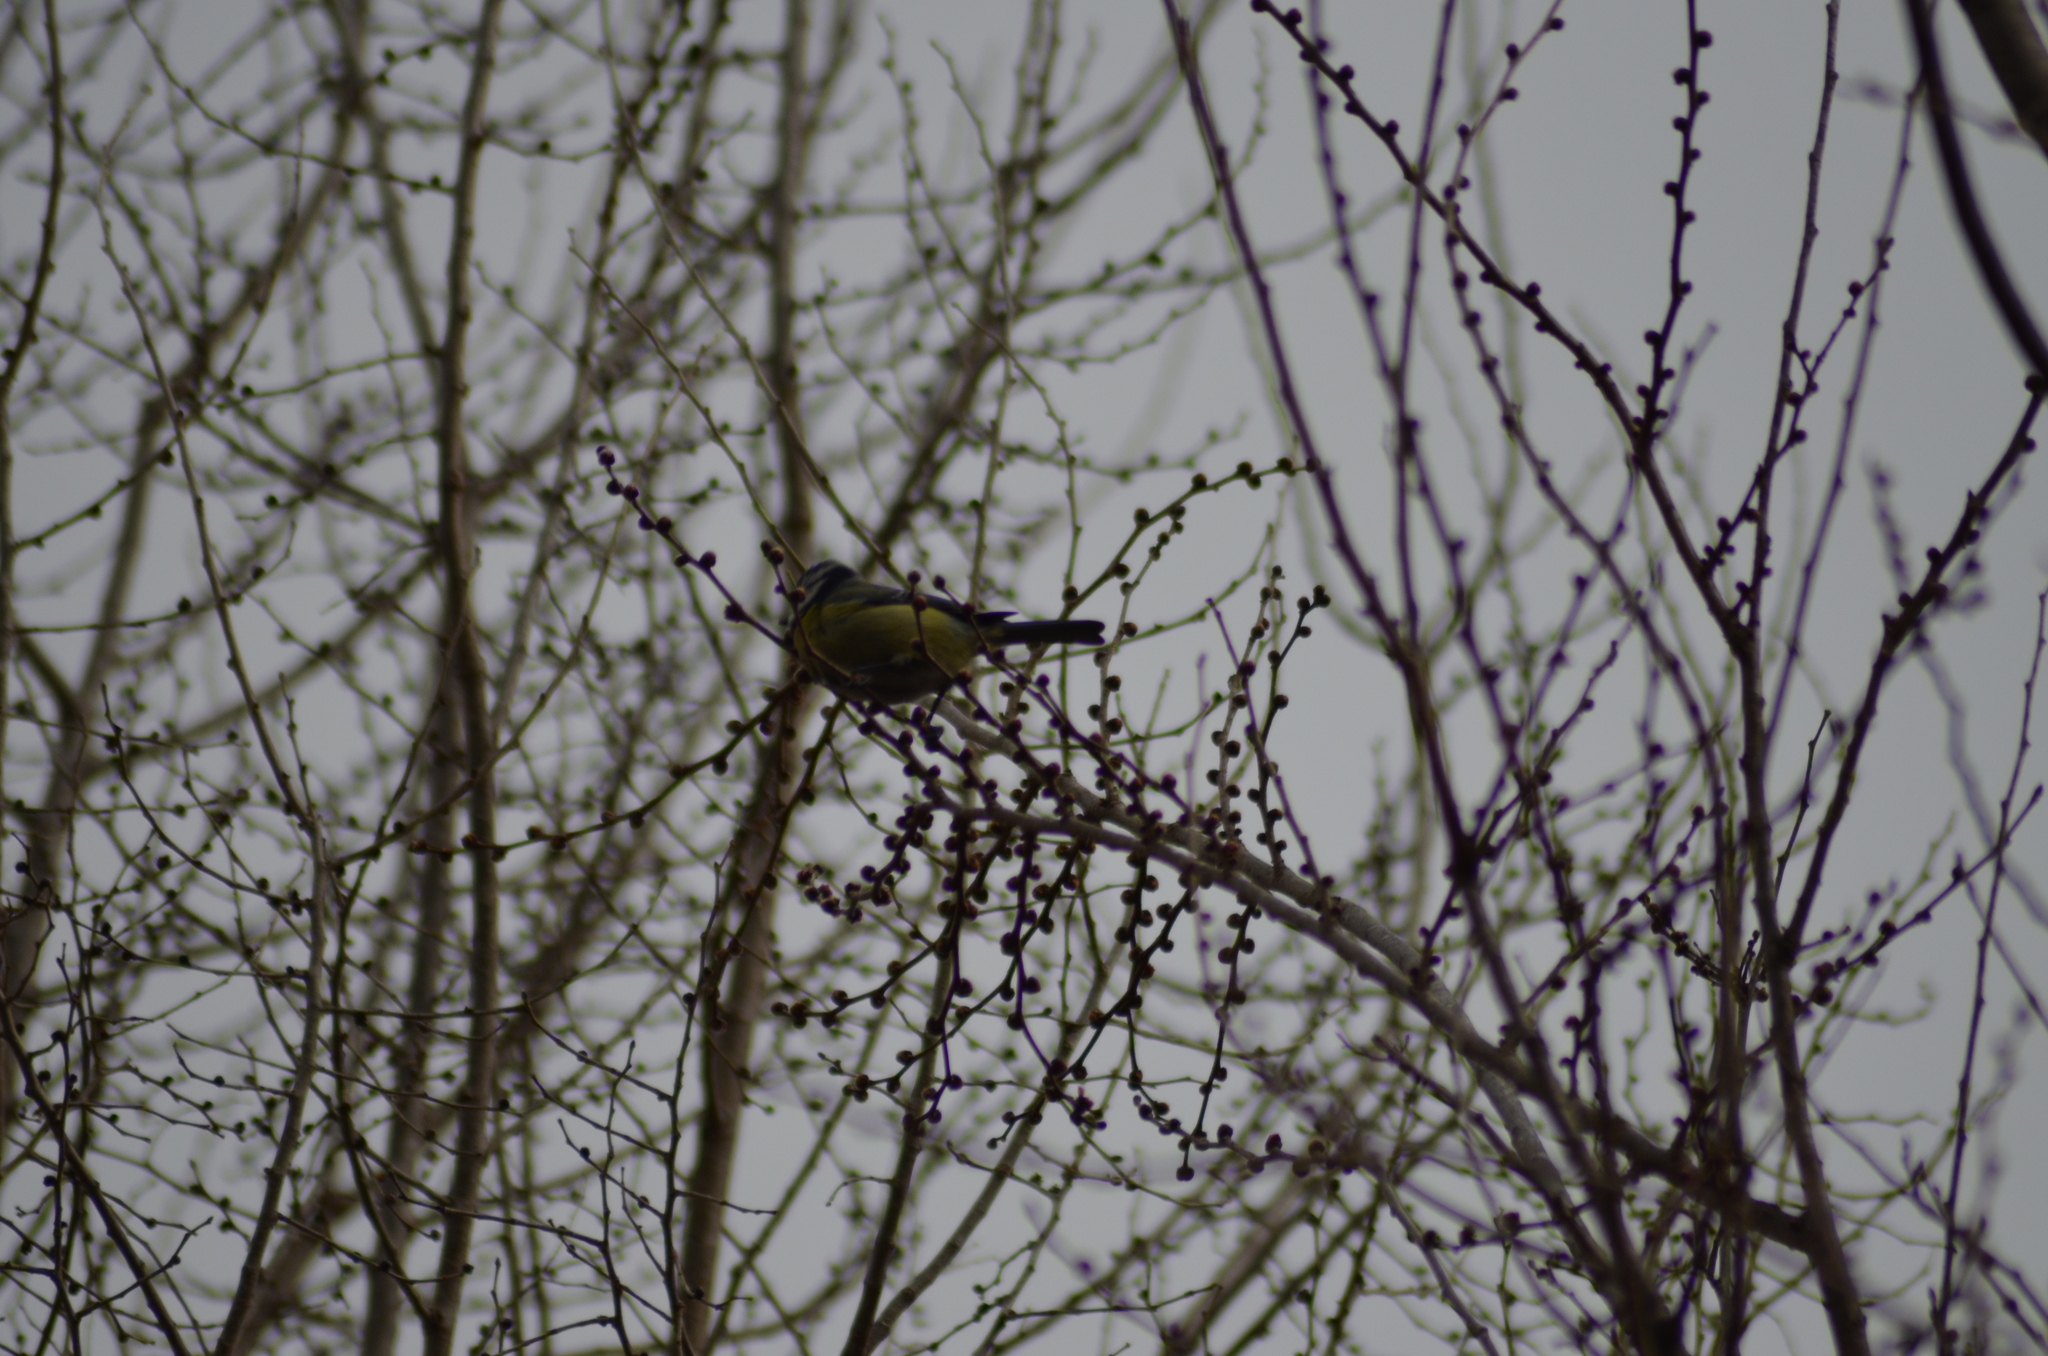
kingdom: Animalia
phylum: Chordata
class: Aves
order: Passeriformes
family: Paridae
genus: Cyanistes
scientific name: Cyanistes caeruleus
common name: Eurasian blue tit
